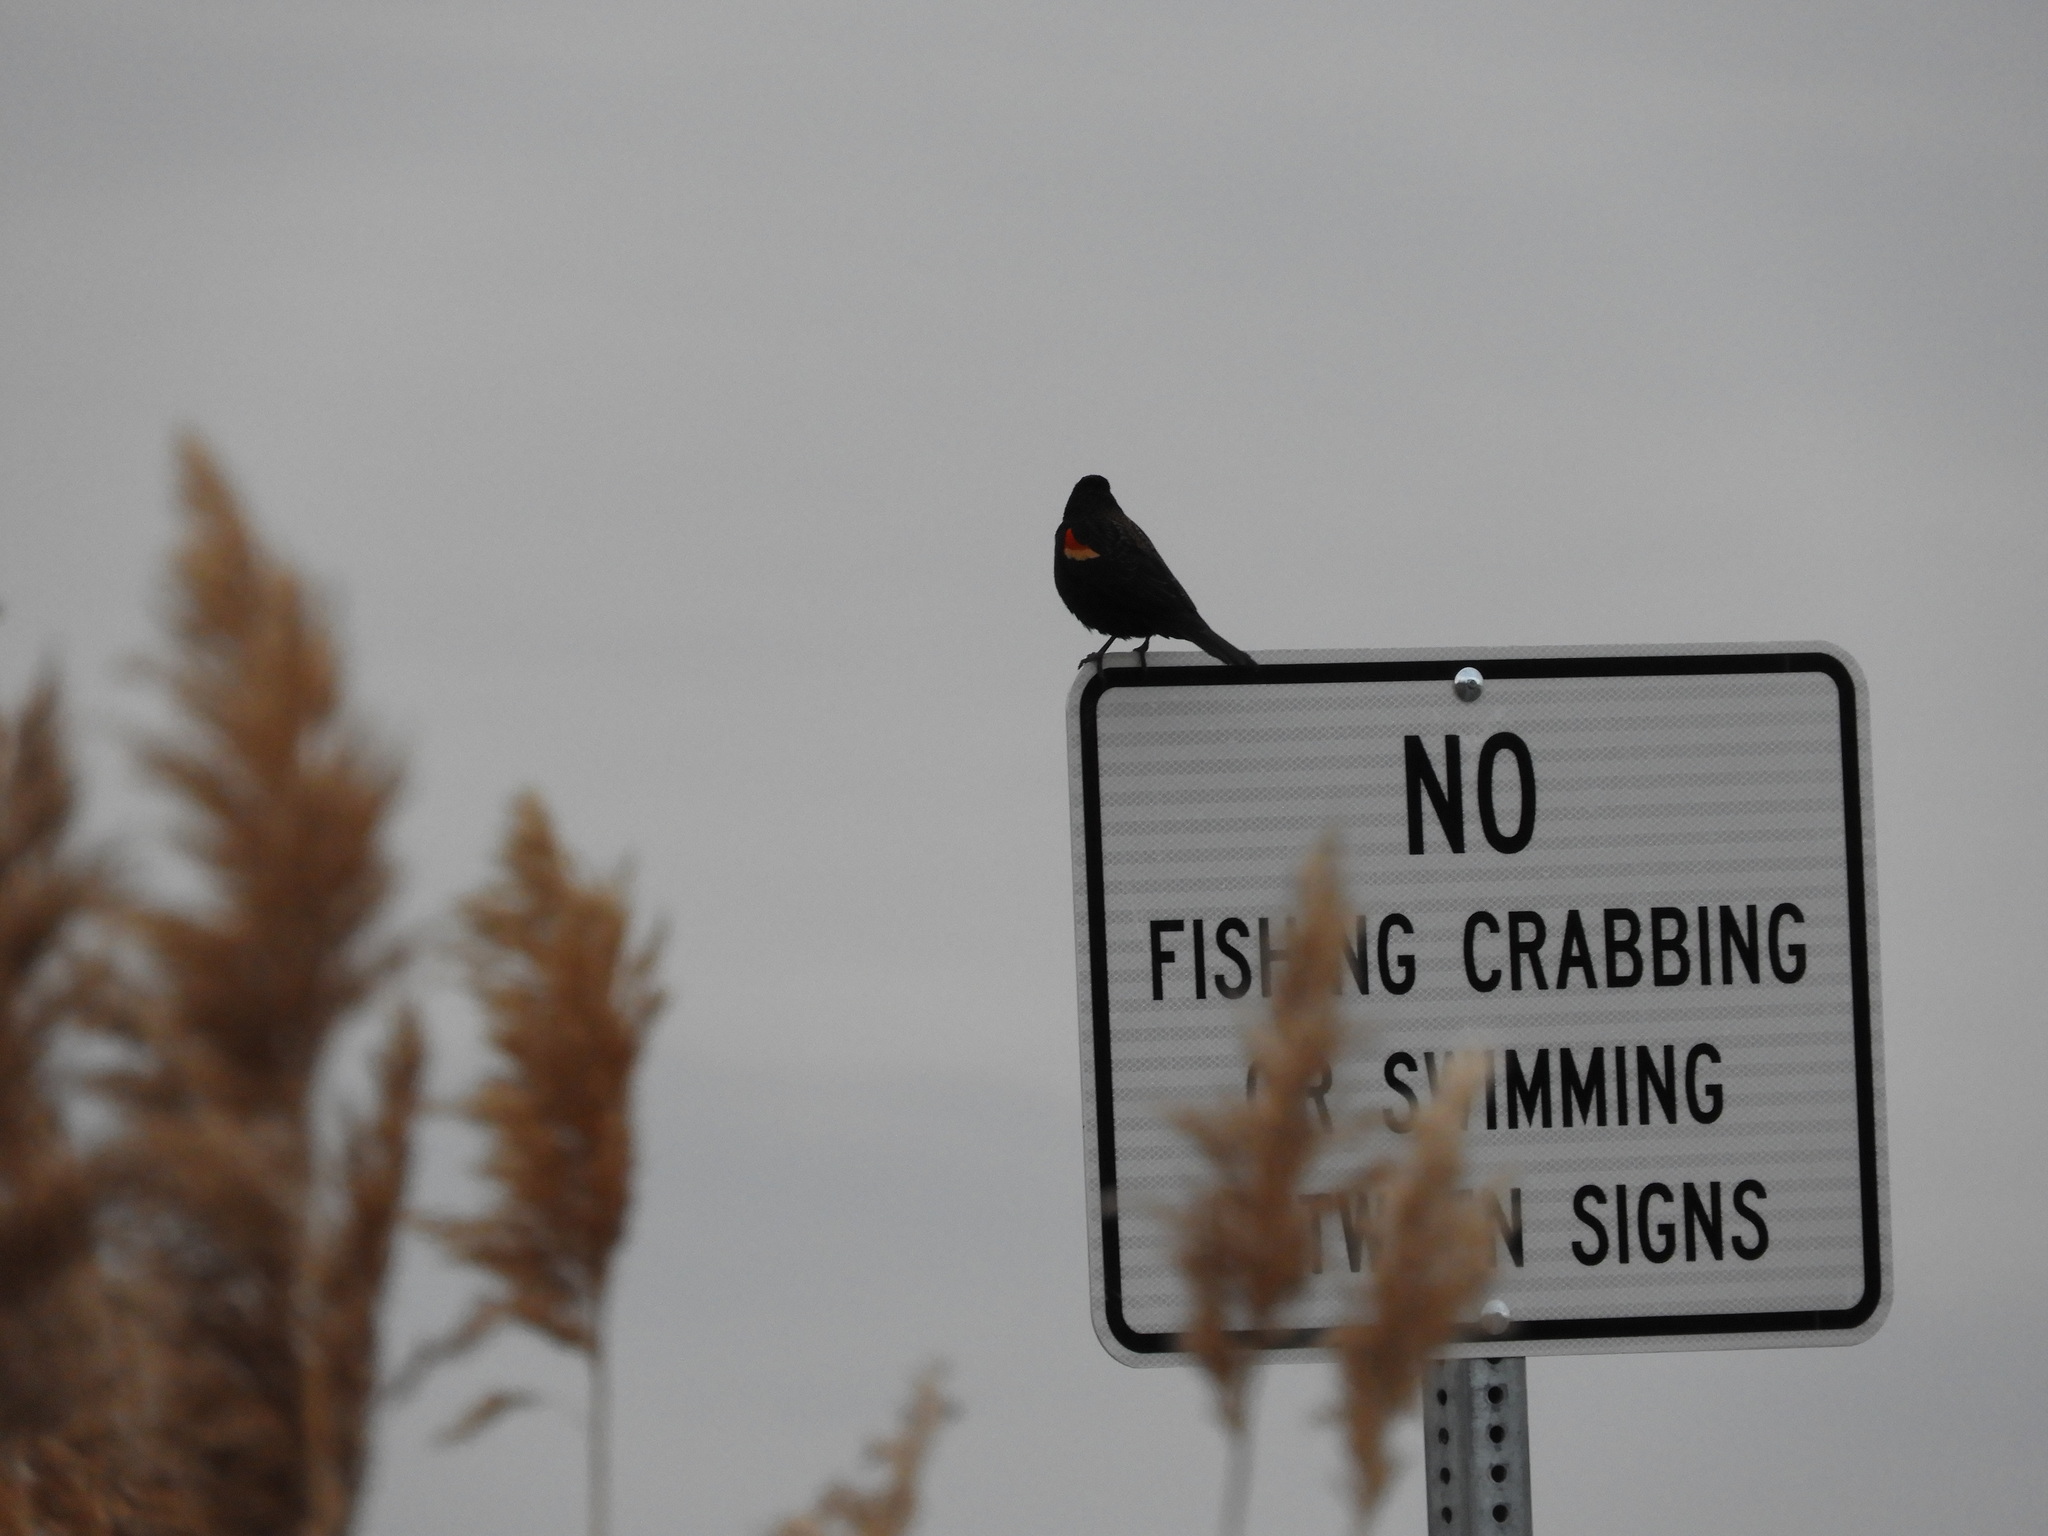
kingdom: Animalia
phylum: Chordata
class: Aves
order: Passeriformes
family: Icteridae
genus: Agelaius
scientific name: Agelaius phoeniceus
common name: Red-winged blackbird
